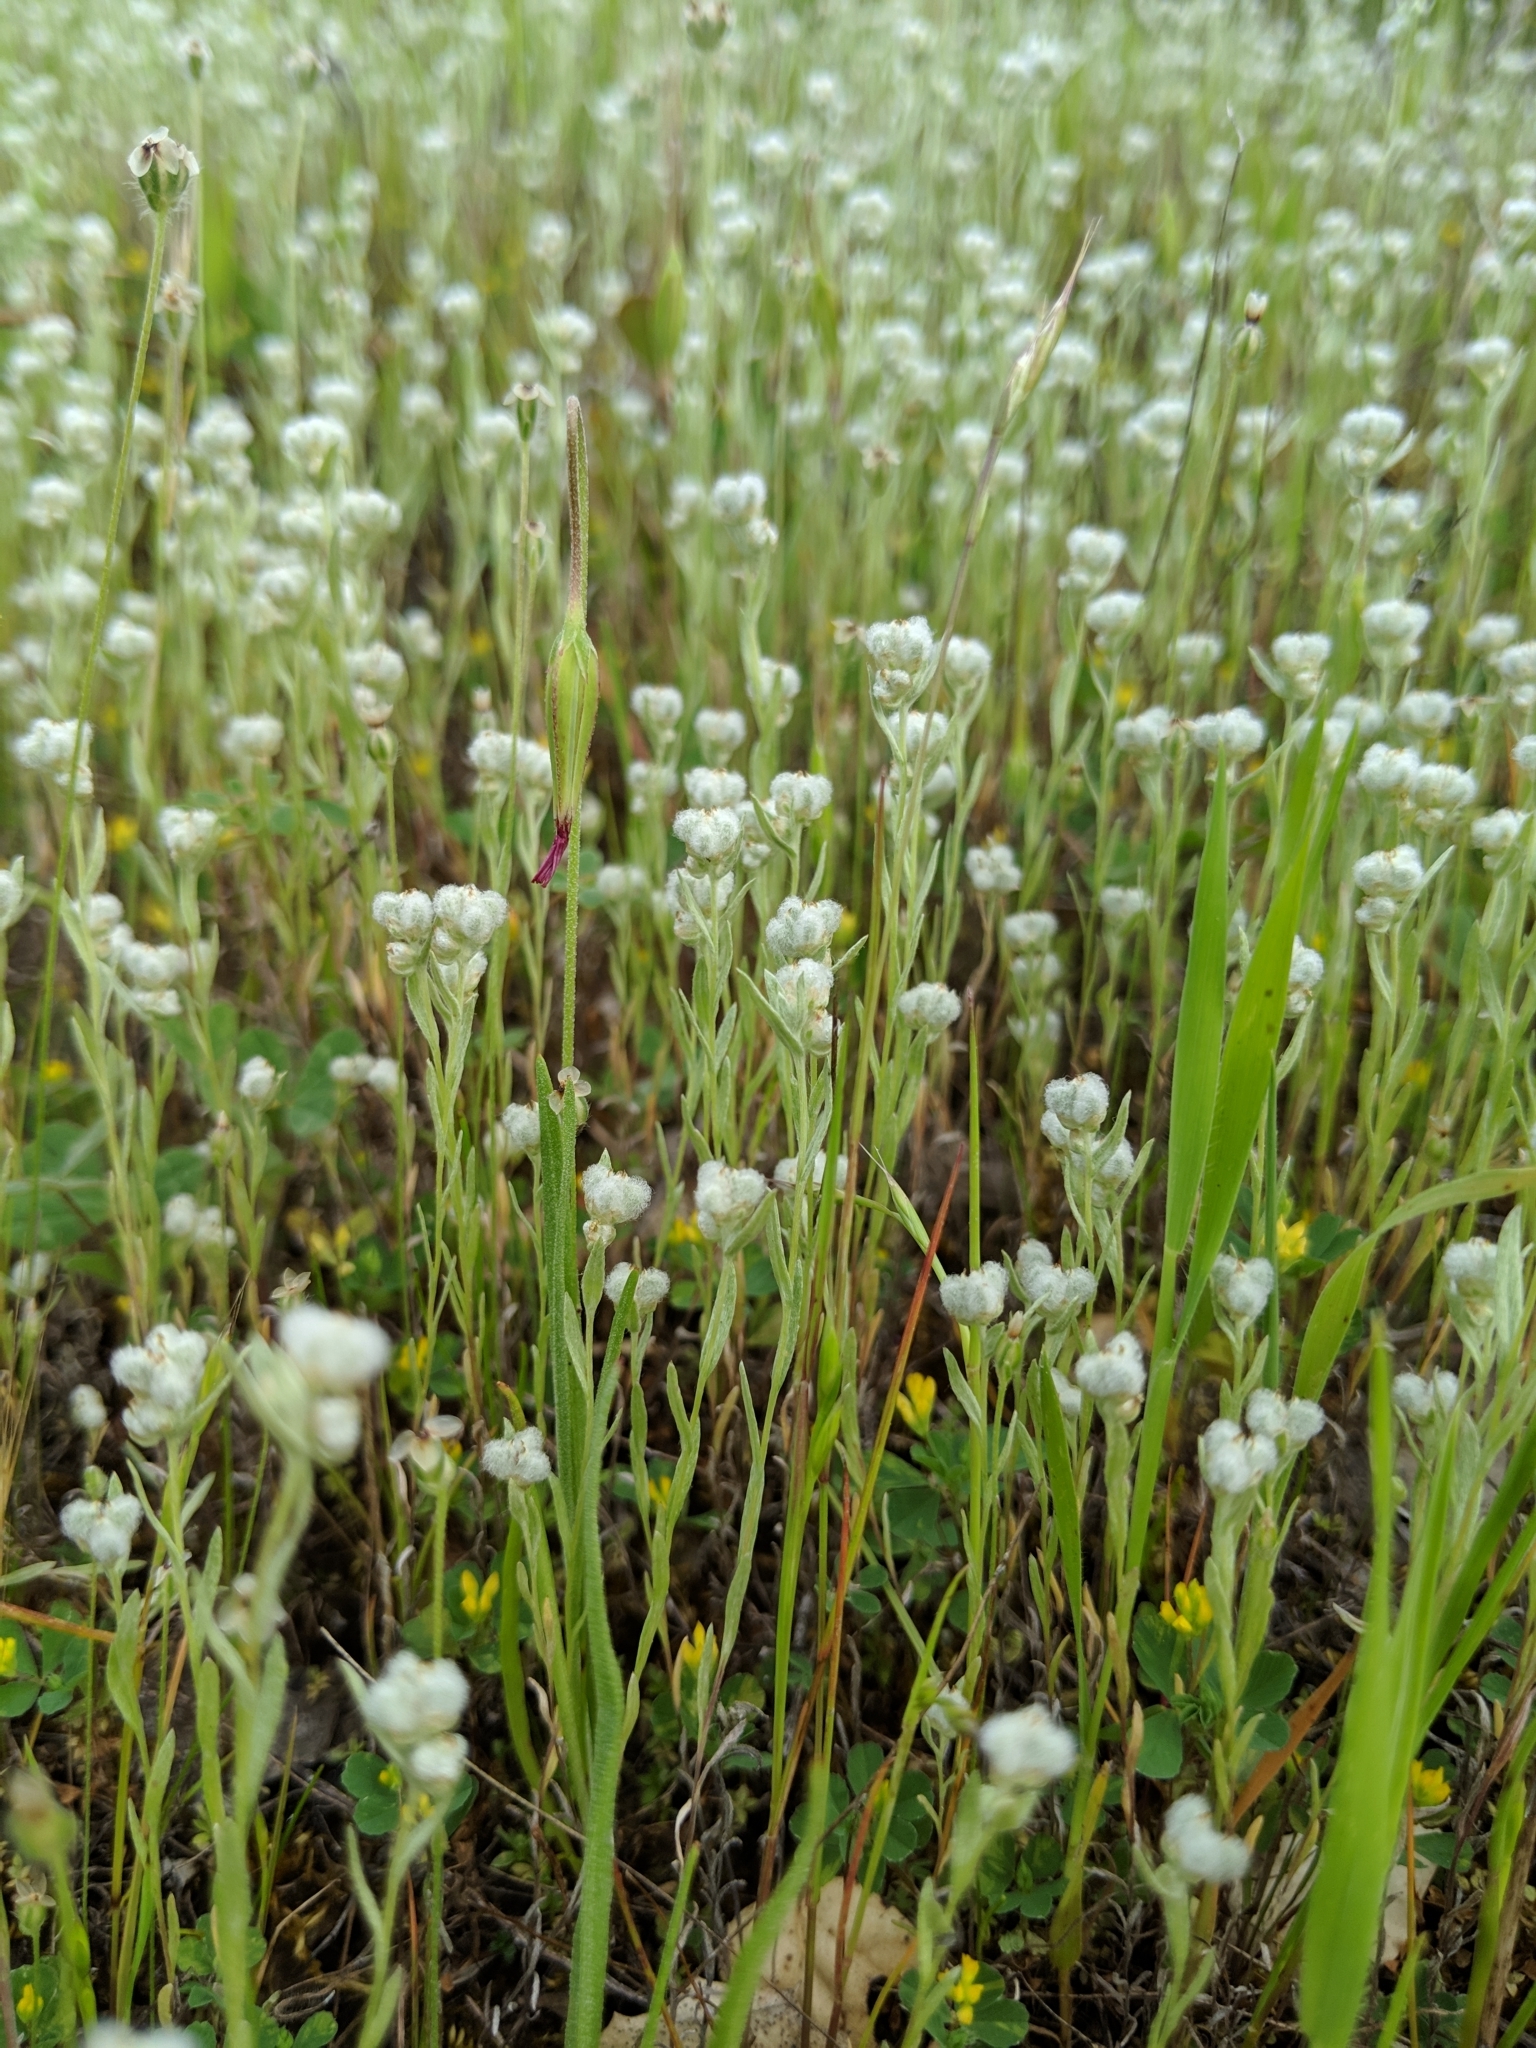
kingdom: Plantae
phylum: Tracheophyta
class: Magnoliopsida
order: Asterales
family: Asteraceae
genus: Bombycilaena
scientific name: Bombycilaena californica
